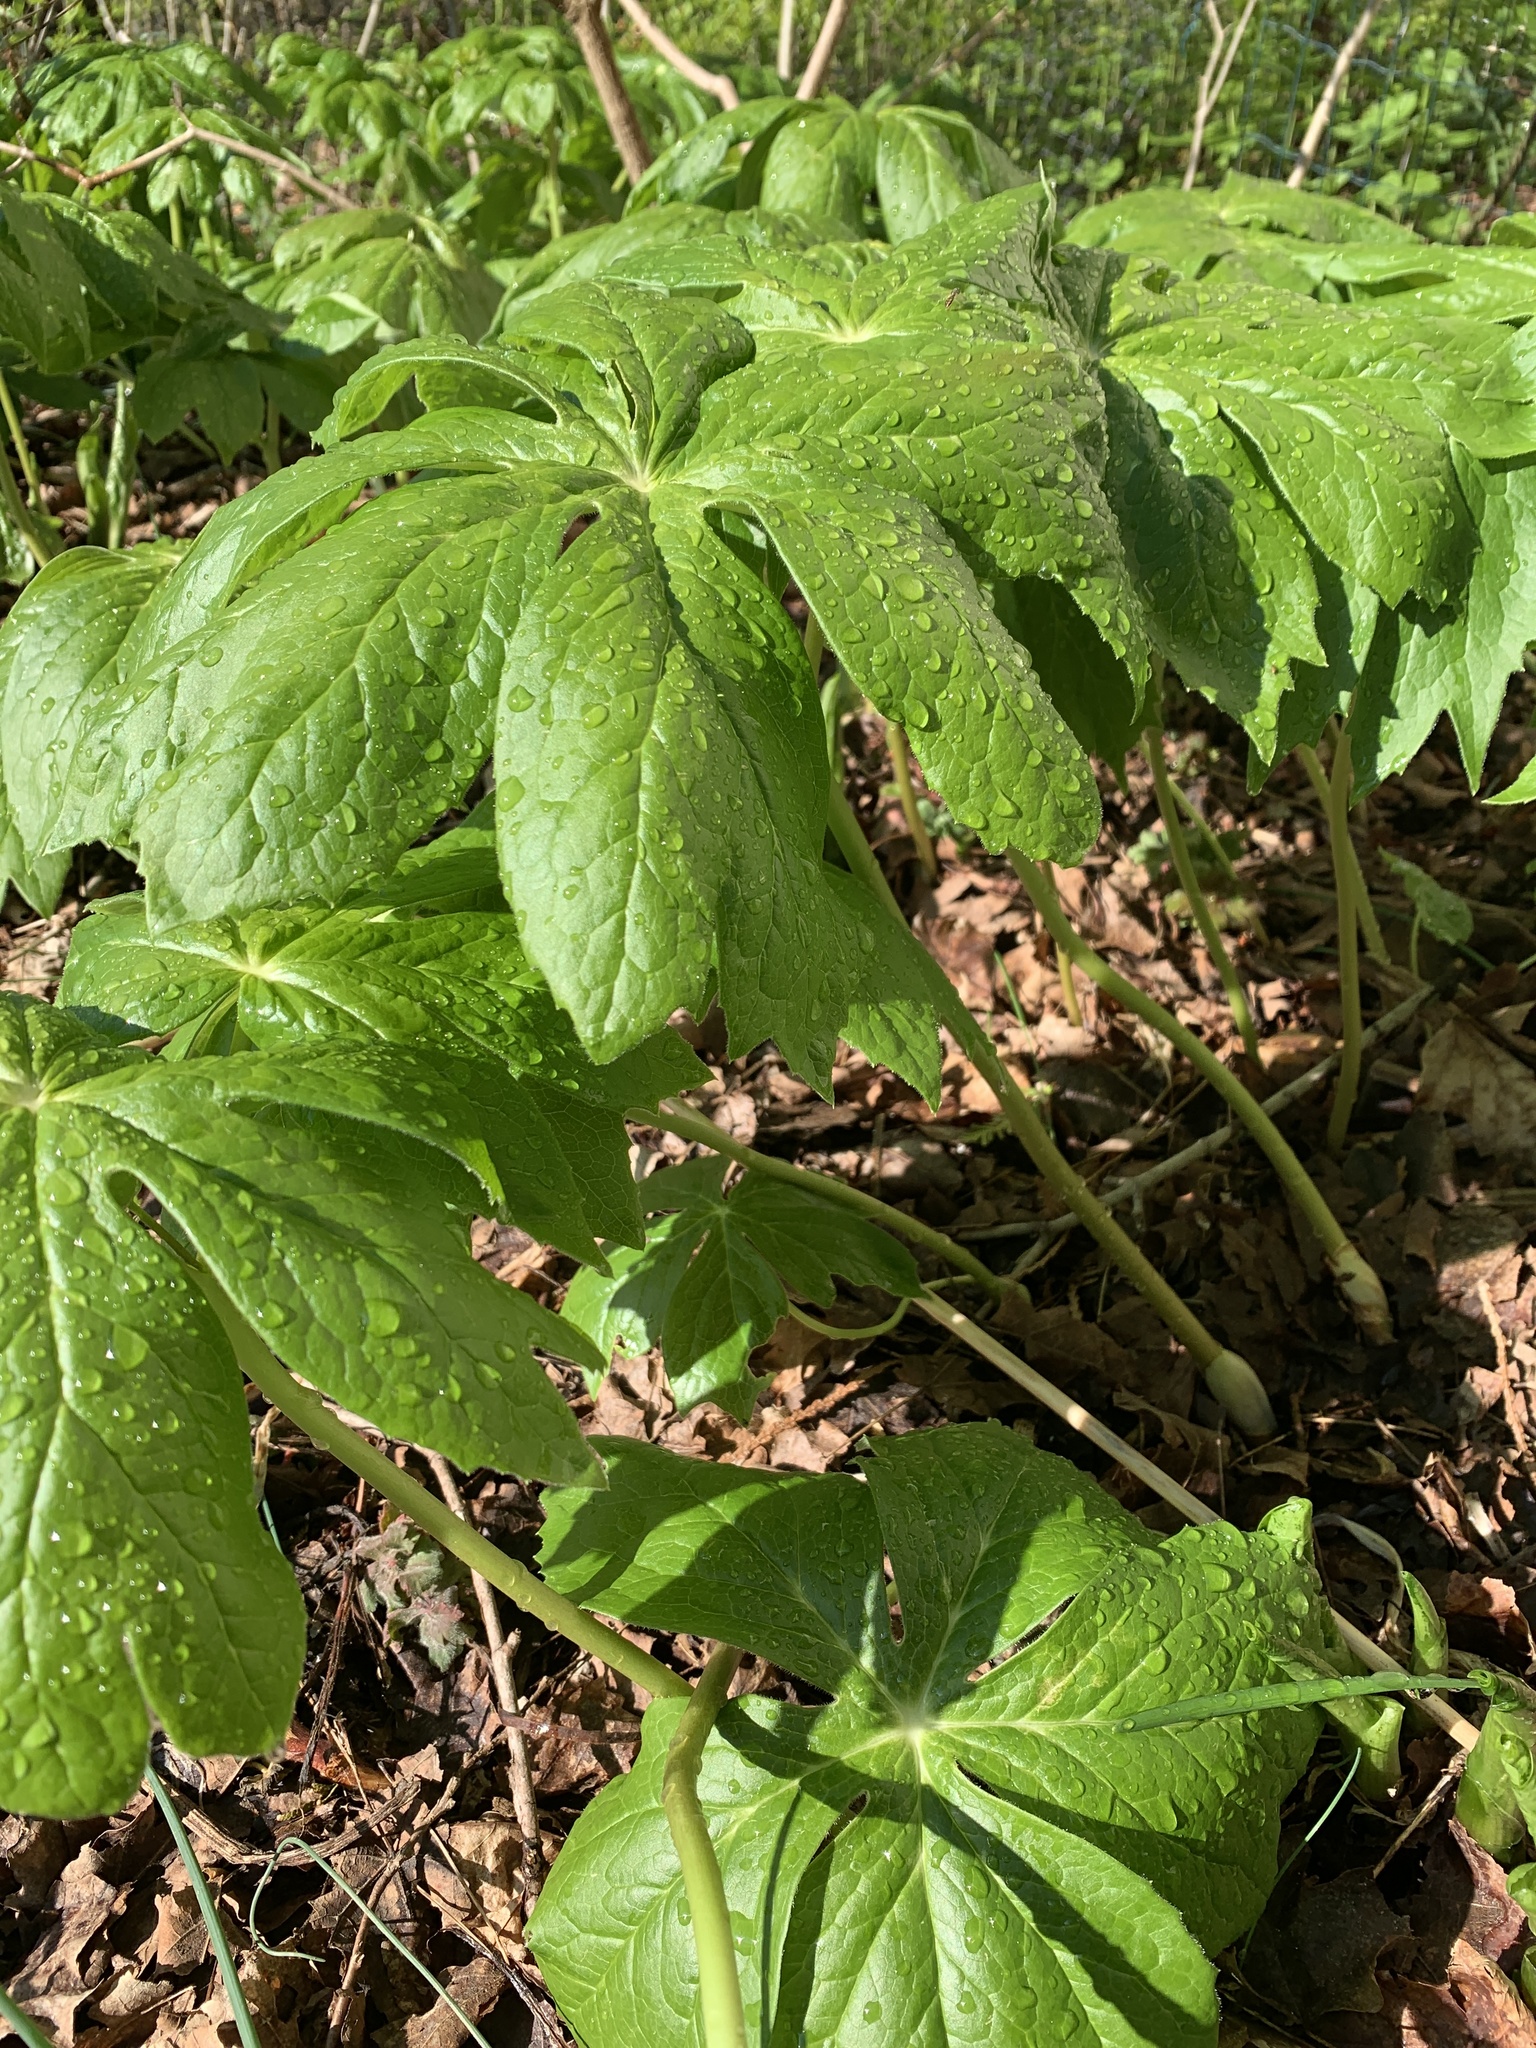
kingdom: Plantae
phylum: Tracheophyta
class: Magnoliopsida
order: Ranunculales
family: Berberidaceae
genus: Podophyllum
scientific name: Podophyllum peltatum
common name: Wild mandrake
